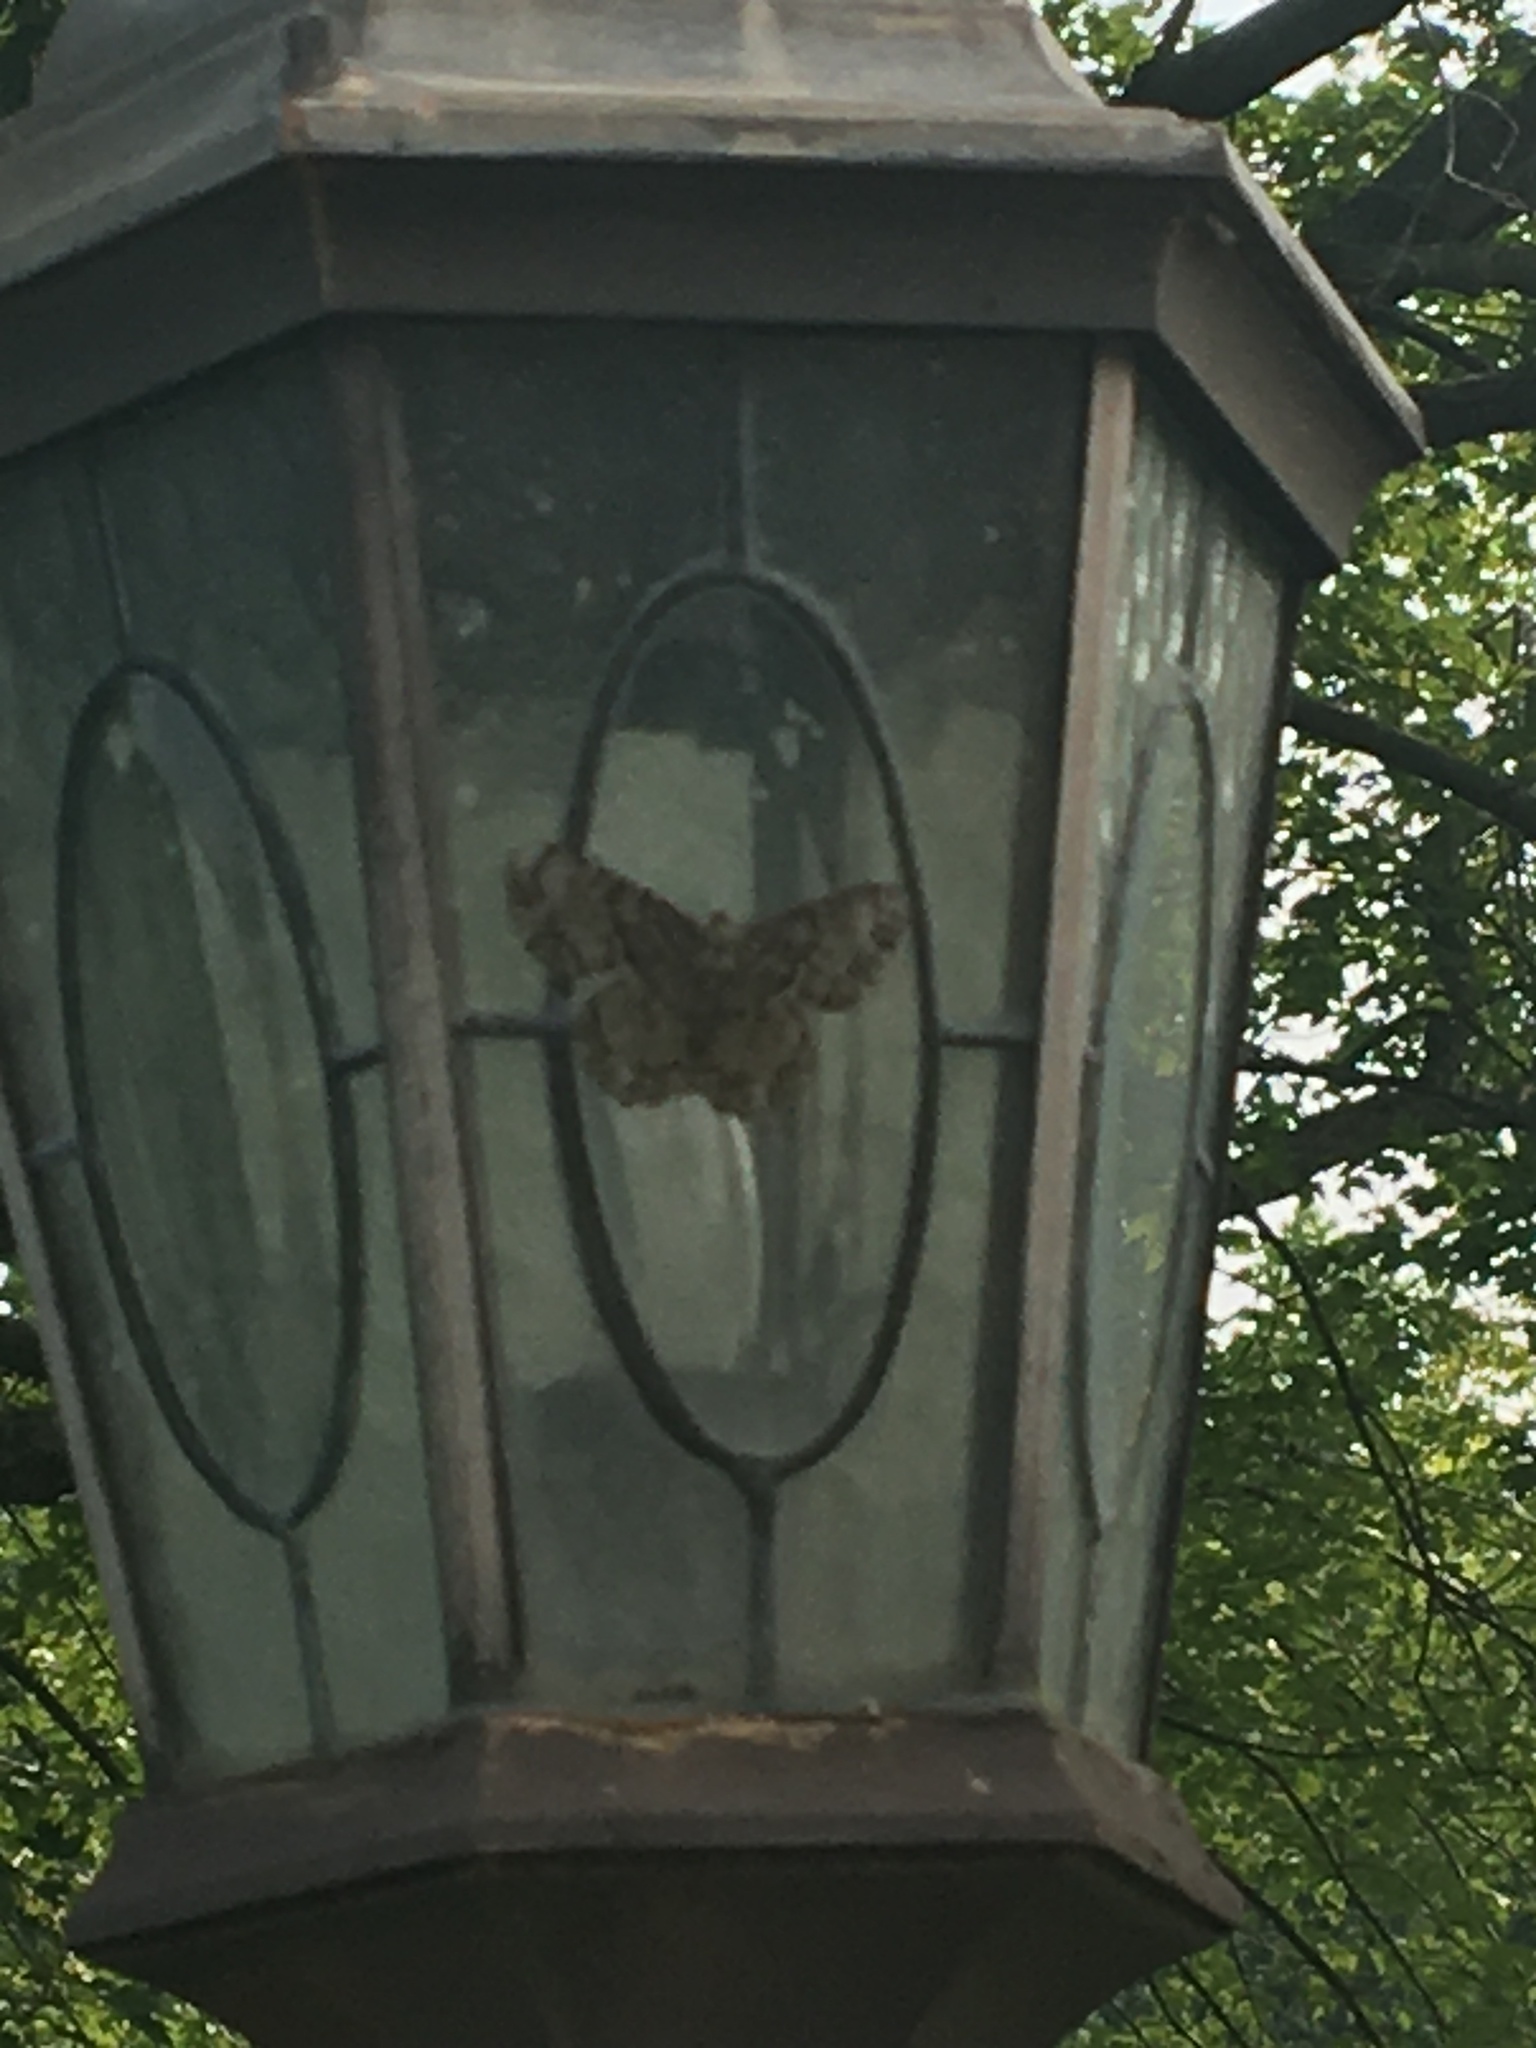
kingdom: Animalia
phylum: Arthropoda
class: Insecta
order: Lepidoptera
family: Geometridae
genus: Epimecis
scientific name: Epimecis hortaria
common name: Tulip-tree beauty
